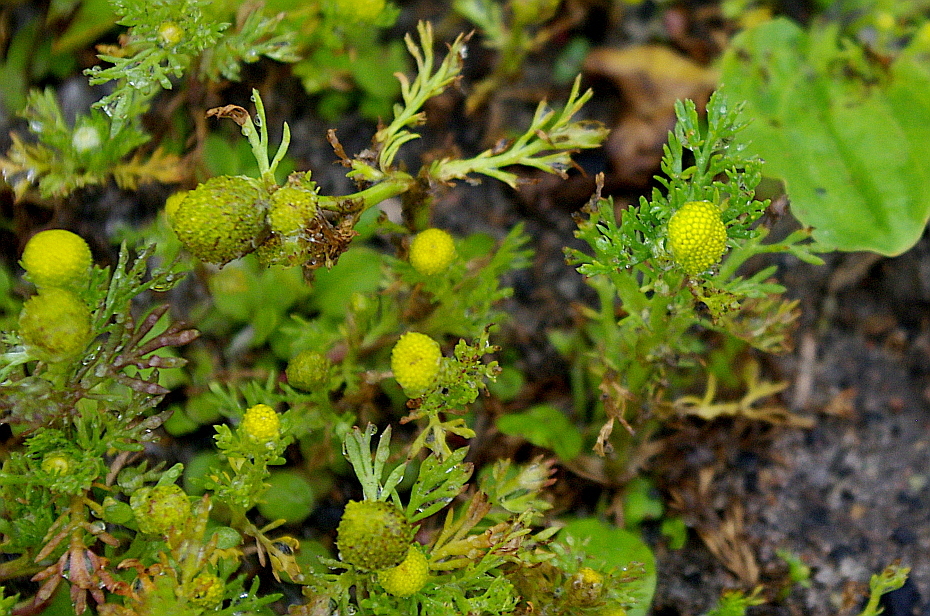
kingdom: Plantae
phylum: Tracheophyta
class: Magnoliopsida
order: Asterales
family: Asteraceae
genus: Matricaria
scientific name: Matricaria discoidea
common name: Disc mayweed
